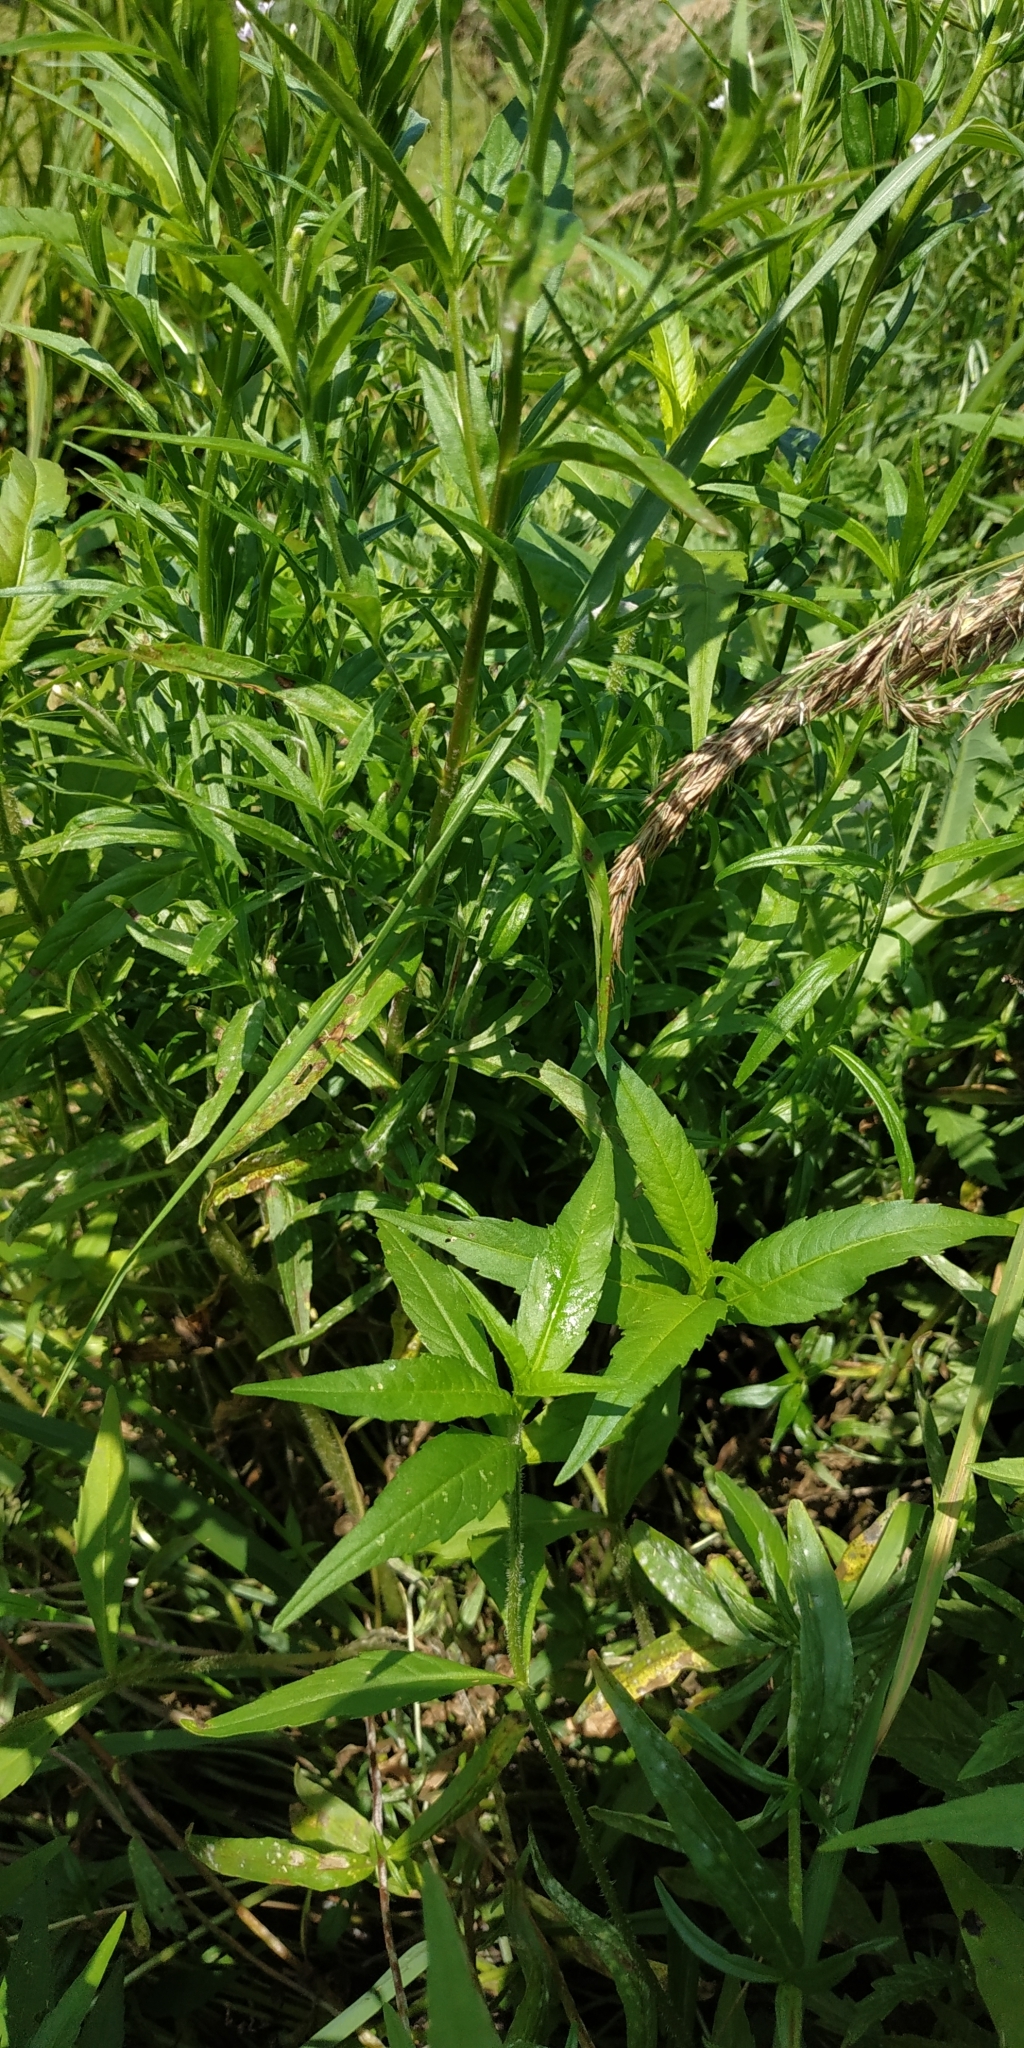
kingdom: Plantae
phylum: Tracheophyta
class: Magnoliopsida
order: Myrtales
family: Onagraceae
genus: Epilobium
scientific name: Epilobium palustre
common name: Marsh willowherb
